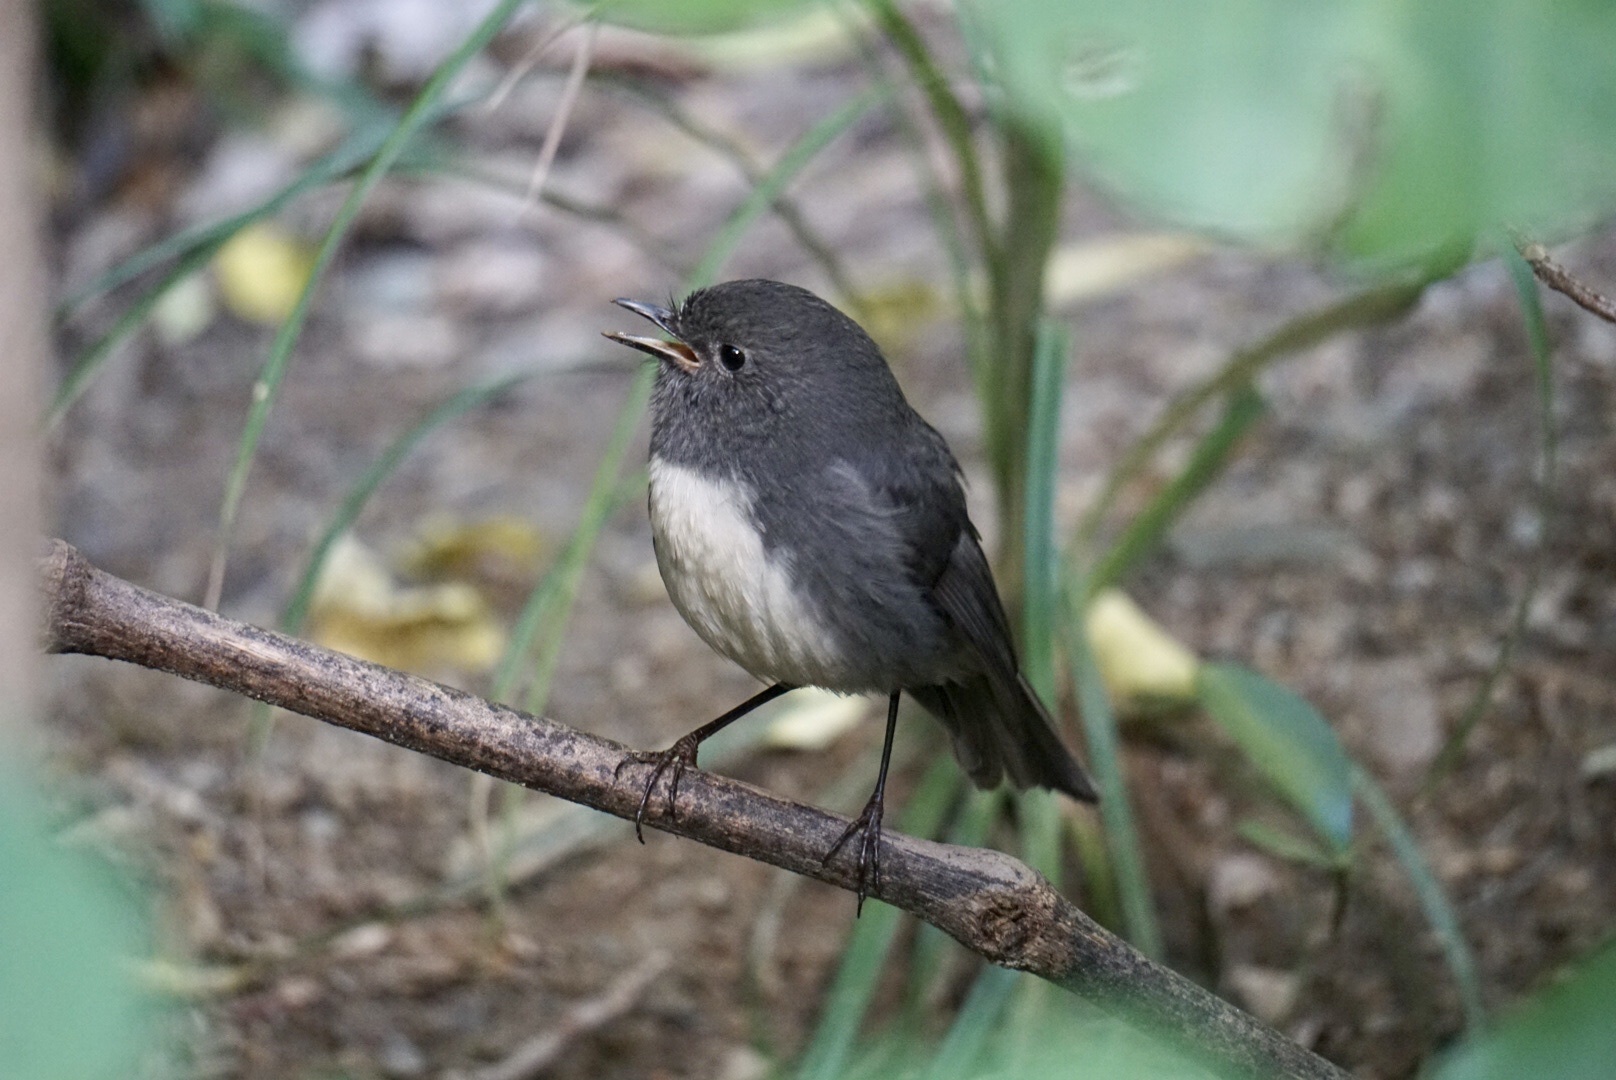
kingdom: Animalia
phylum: Chordata
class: Aves
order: Passeriformes
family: Petroicidae
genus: Petroica
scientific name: Petroica australis
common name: New zealand robin
